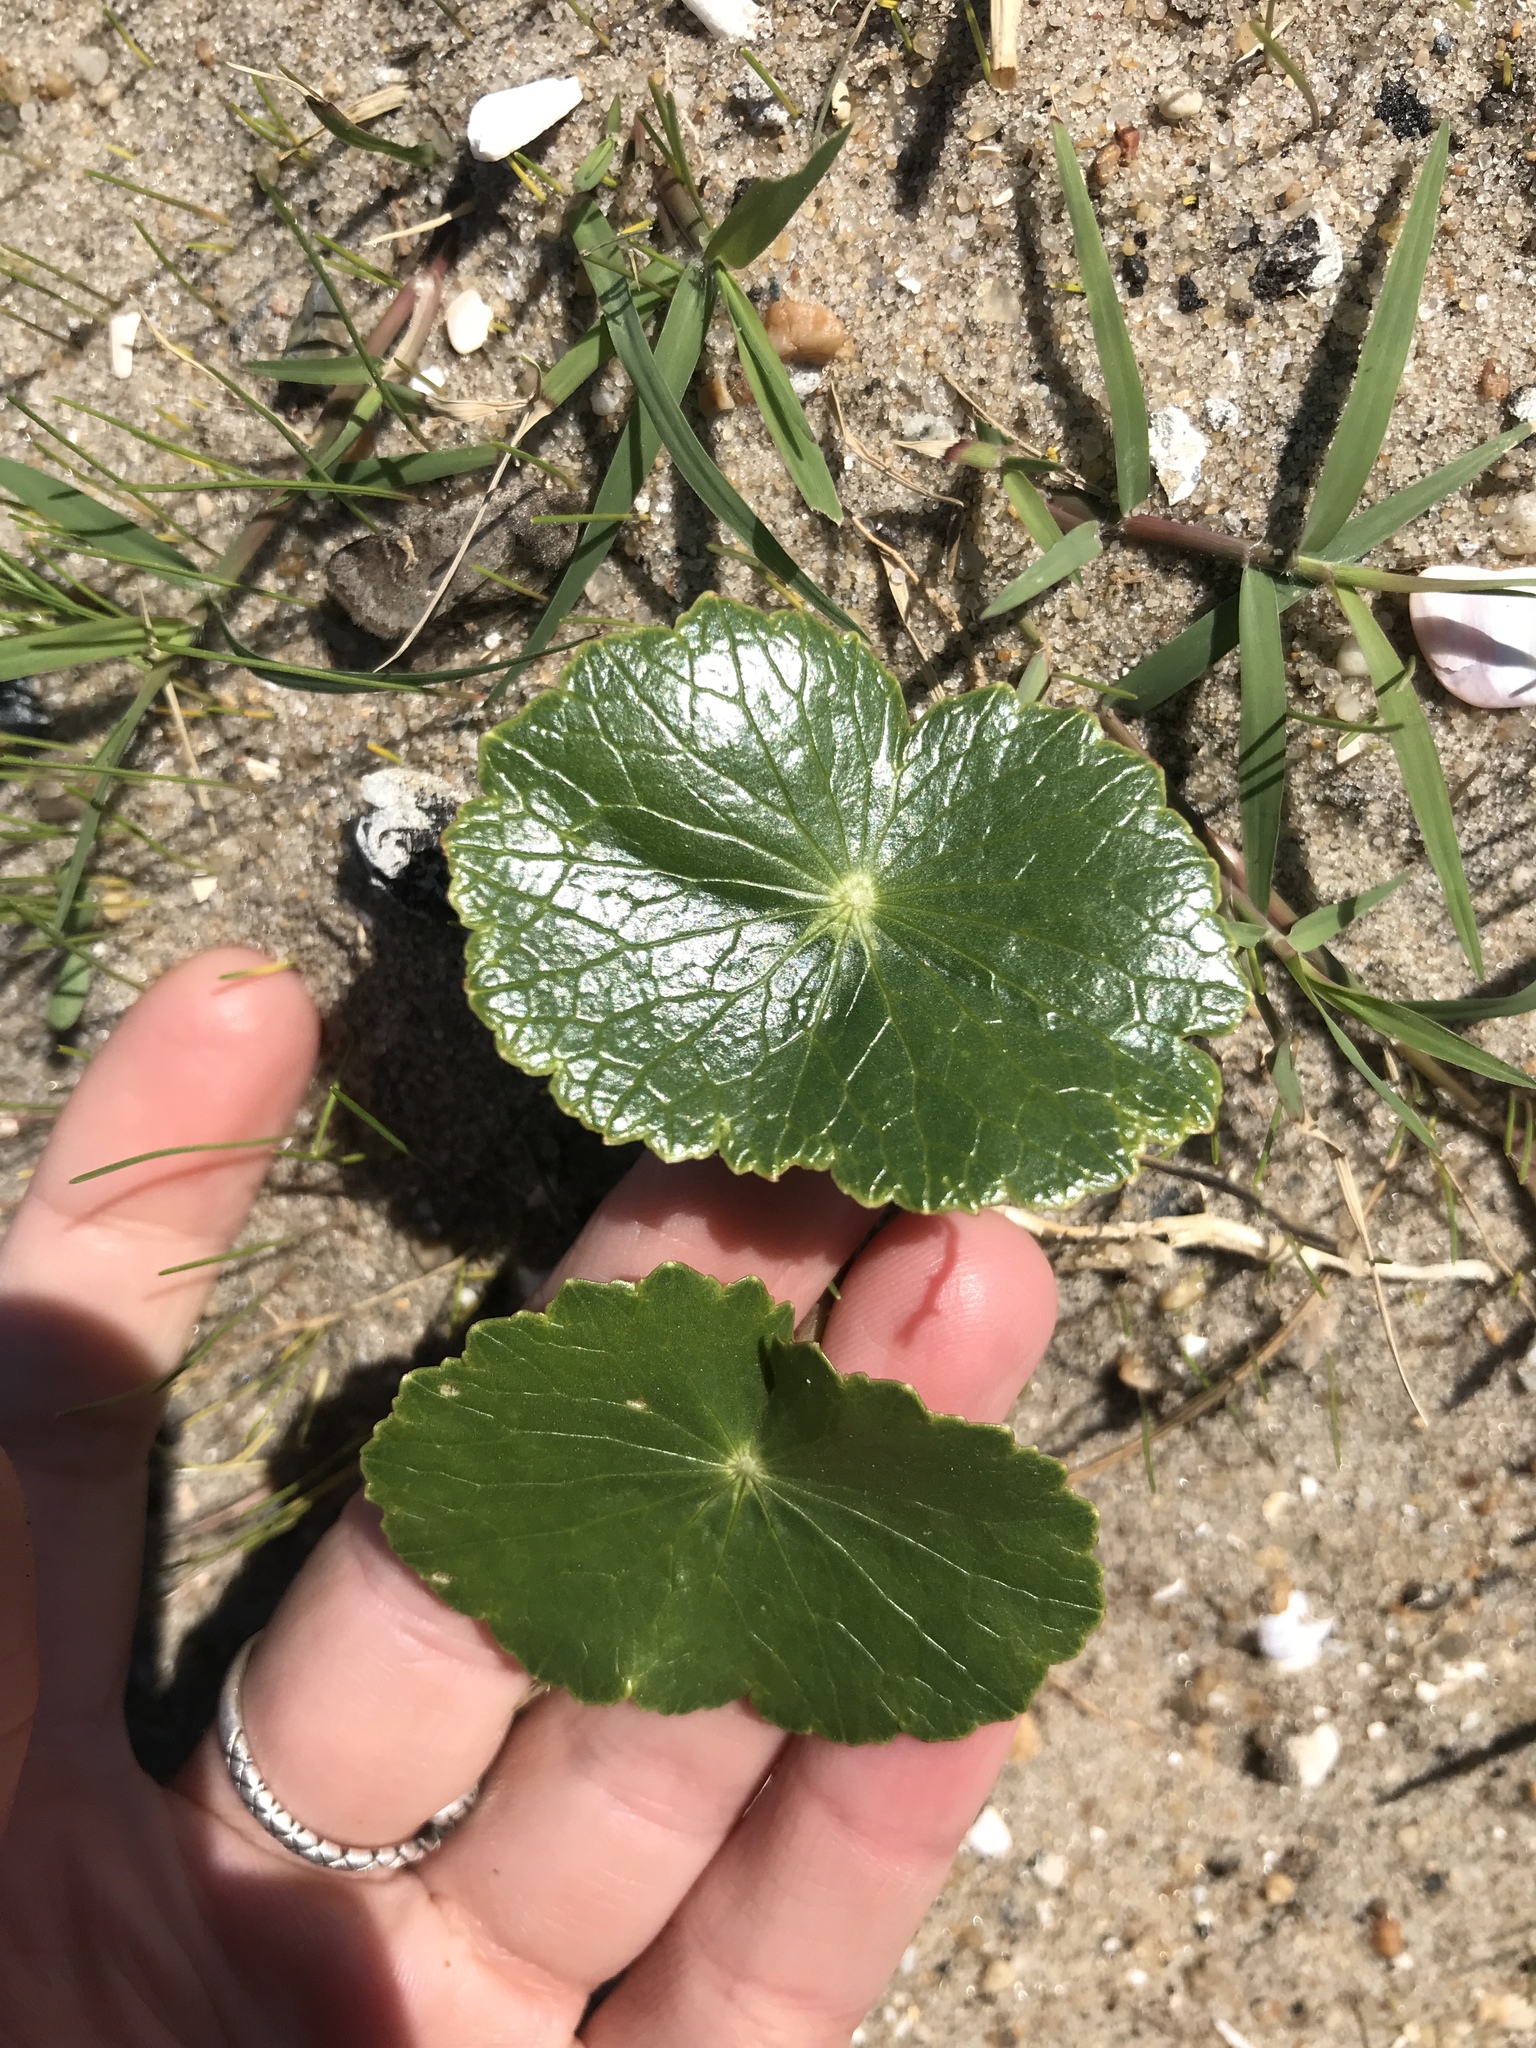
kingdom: Plantae
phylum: Tracheophyta
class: Magnoliopsida
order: Apiales
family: Araliaceae
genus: Hydrocotyle
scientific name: Hydrocotyle bonariensis
